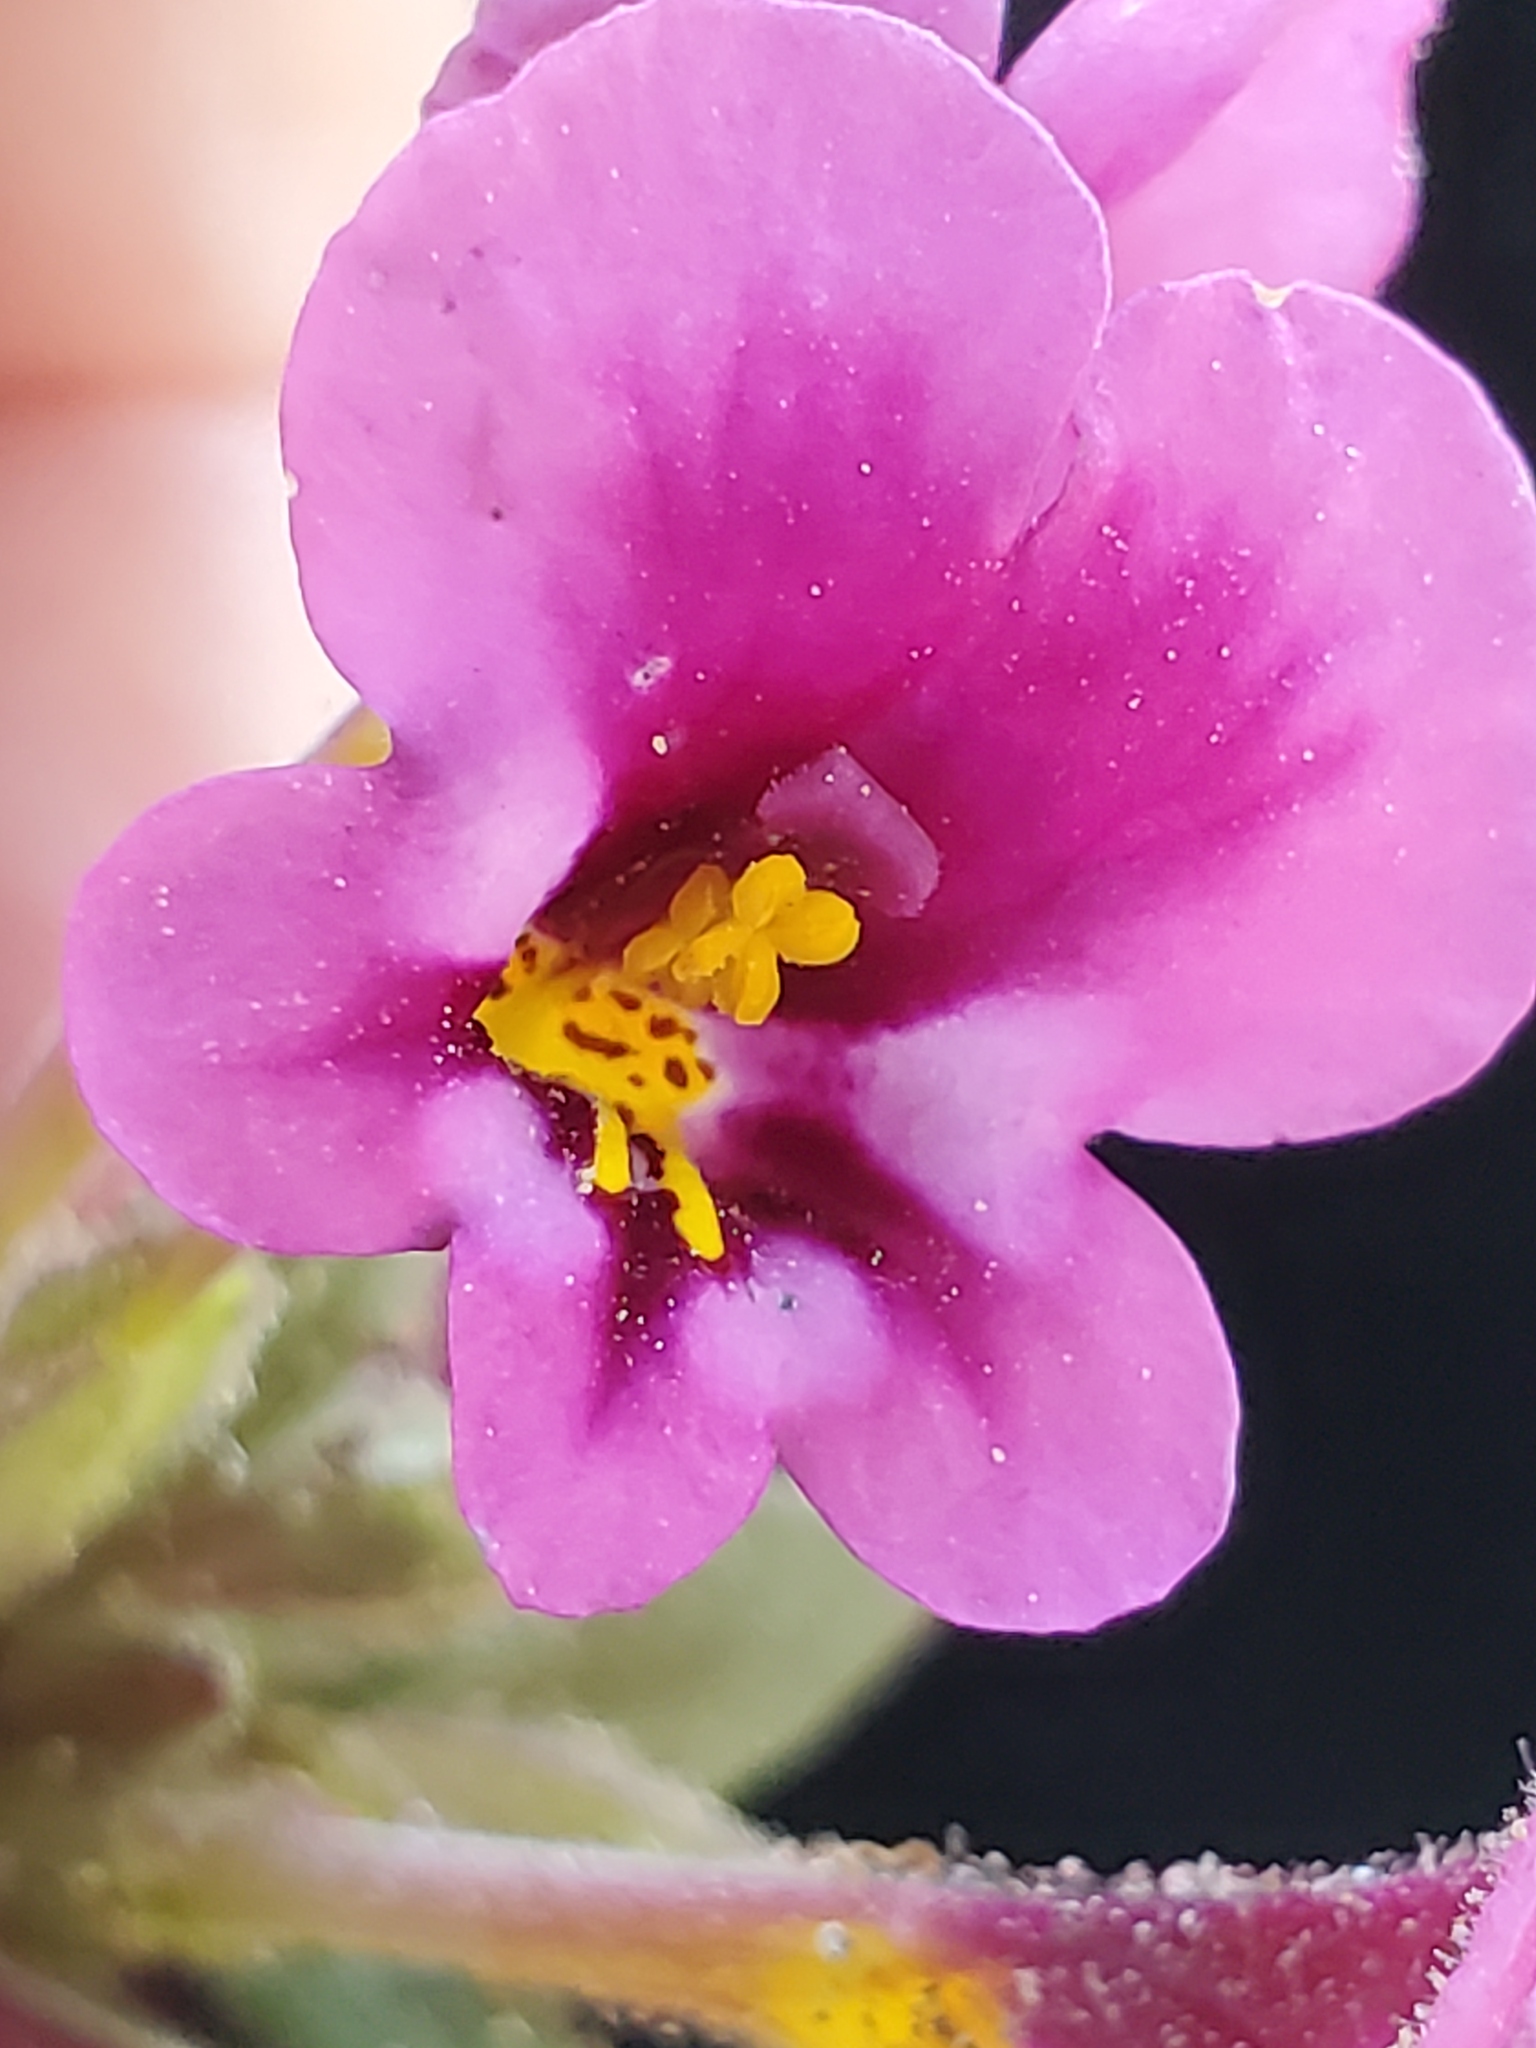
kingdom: Plantae
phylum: Tracheophyta
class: Magnoliopsida
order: Lamiales
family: Phrymaceae
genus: Diplacus
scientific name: Diplacus kelloggii
